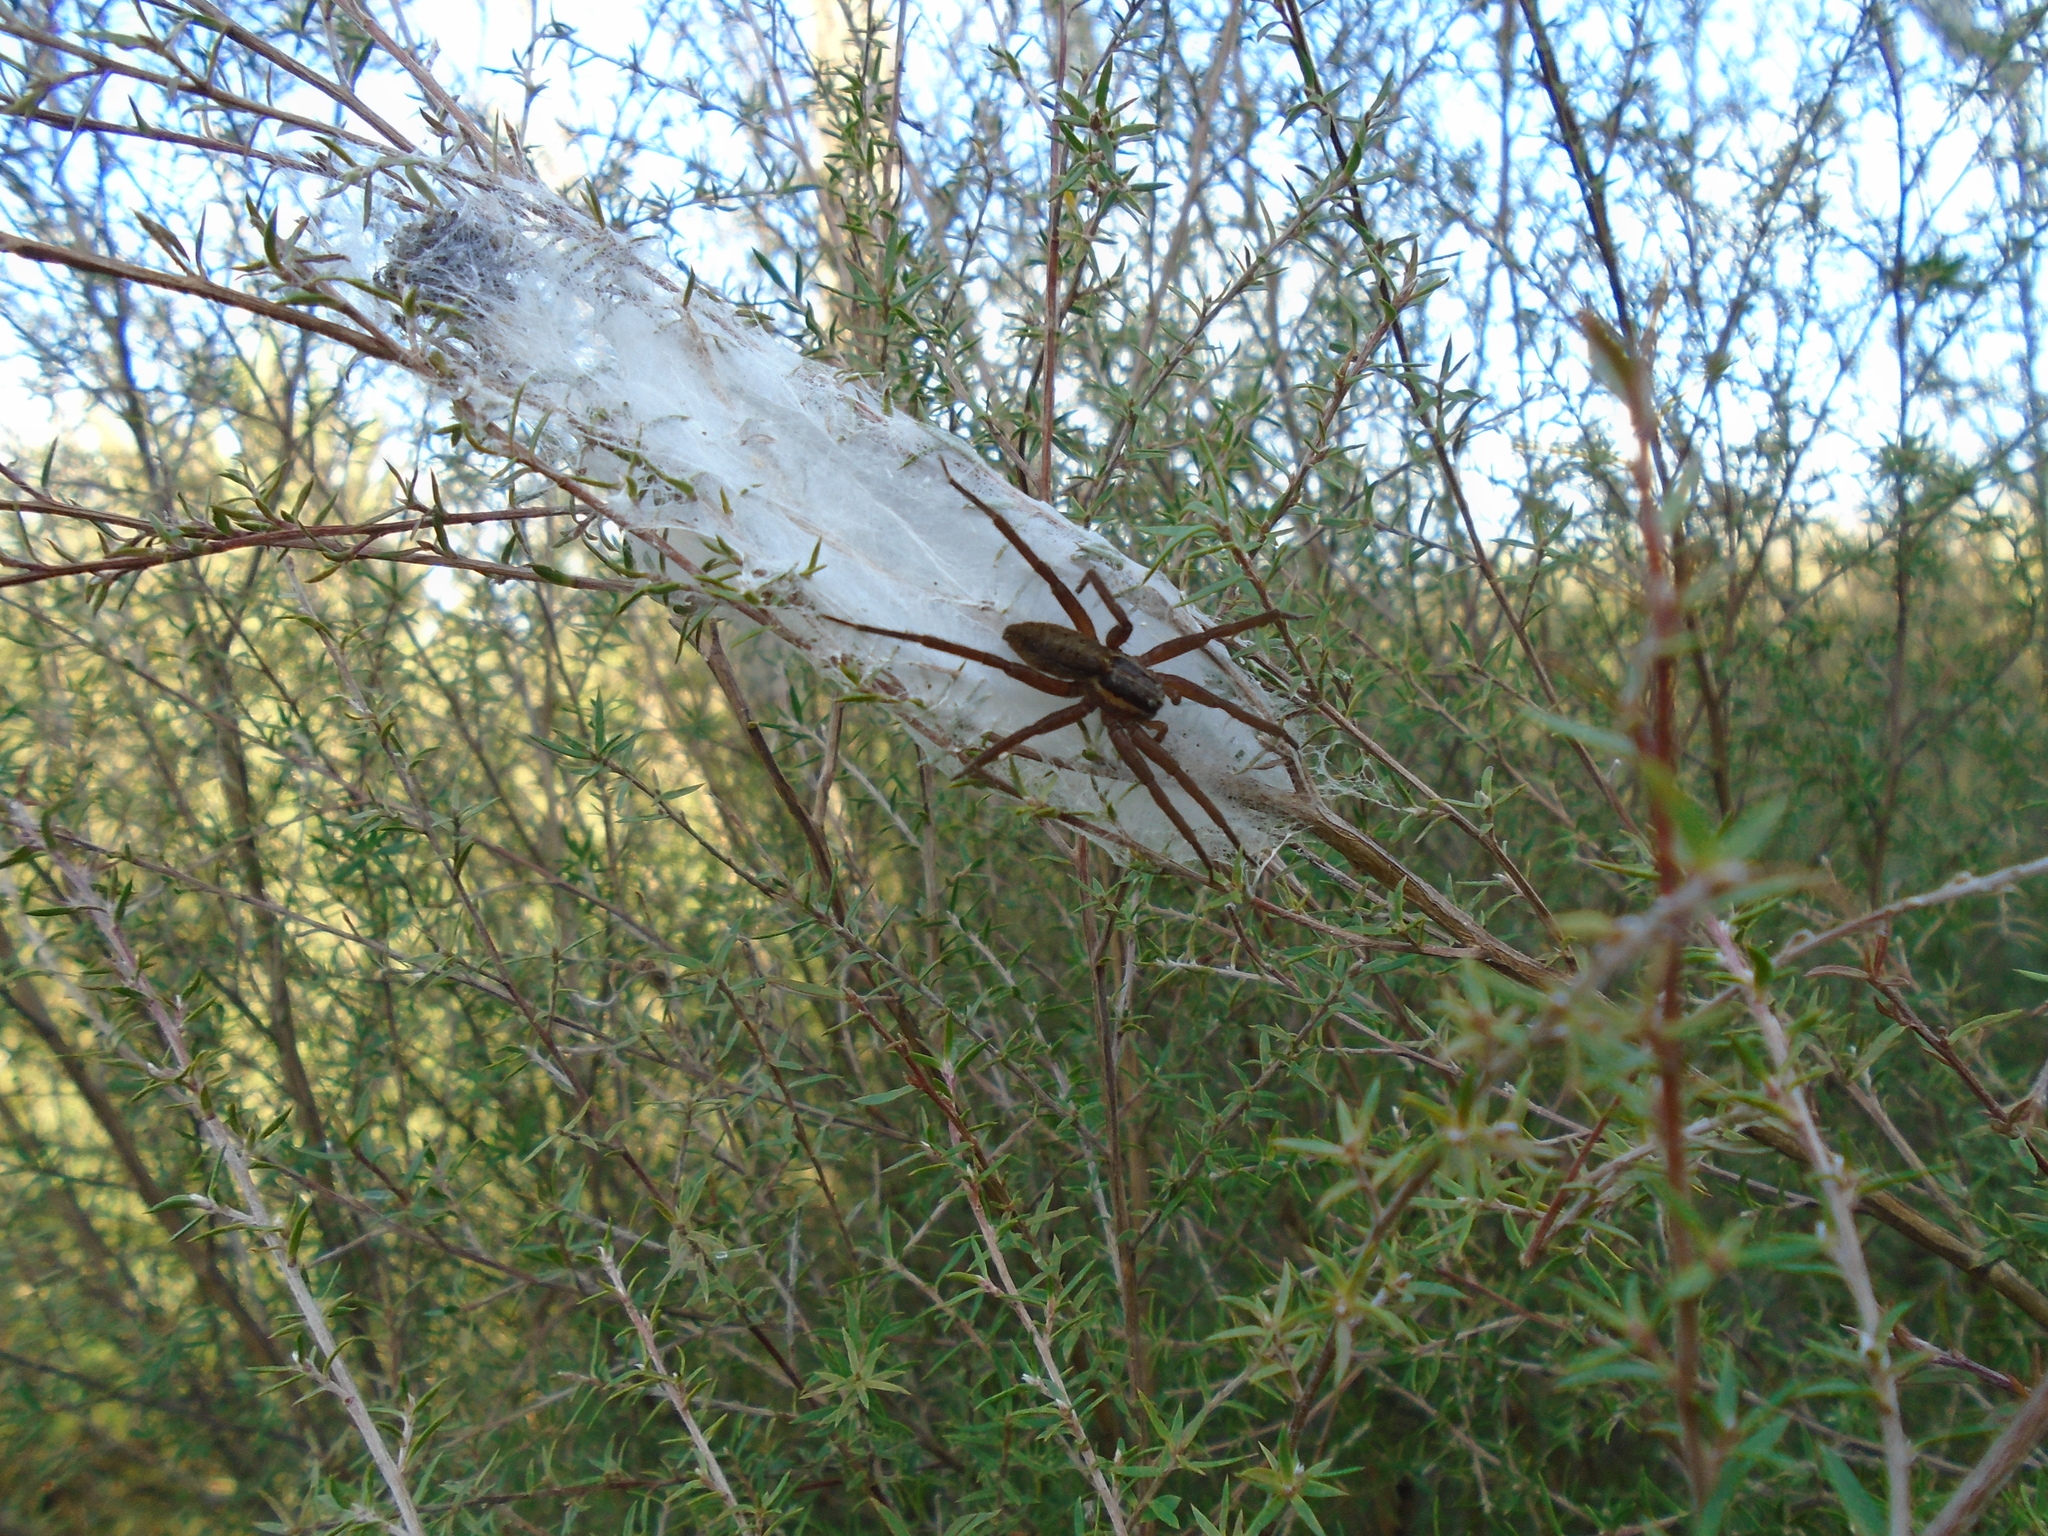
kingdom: Animalia
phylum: Arthropoda
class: Arachnida
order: Araneae
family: Pisauridae
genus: Dolomedes
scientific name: Dolomedes minor
